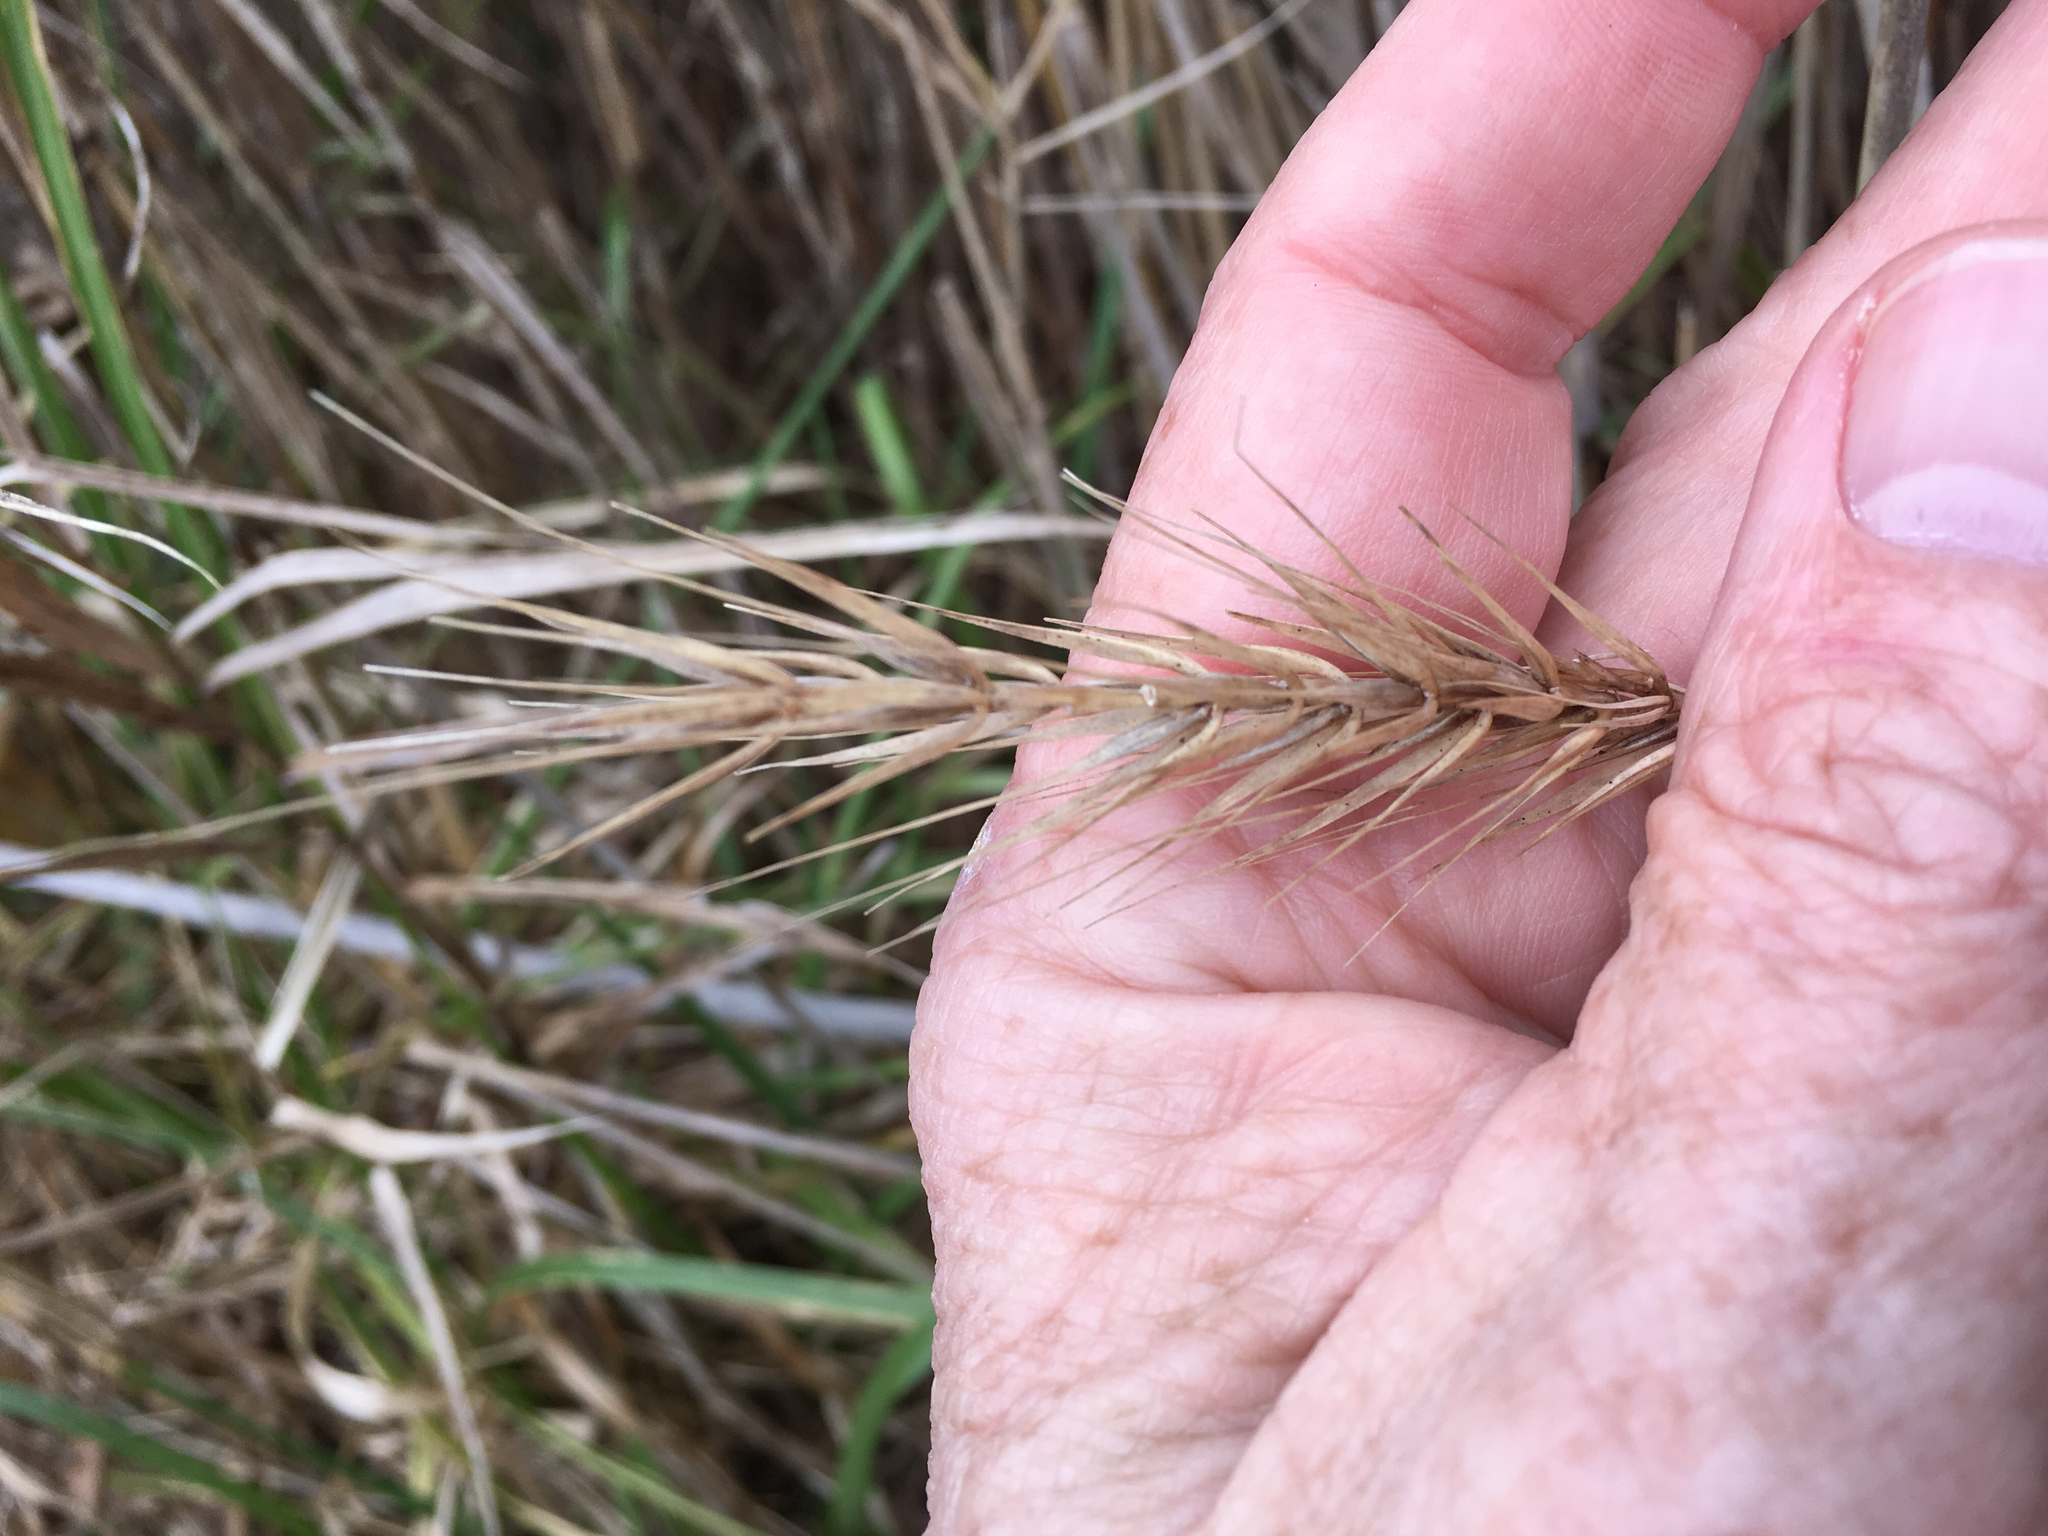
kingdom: Plantae
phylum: Tracheophyta
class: Liliopsida
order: Poales
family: Poaceae
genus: Elymus
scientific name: Elymus virginicus
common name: Common eastern wildrye
